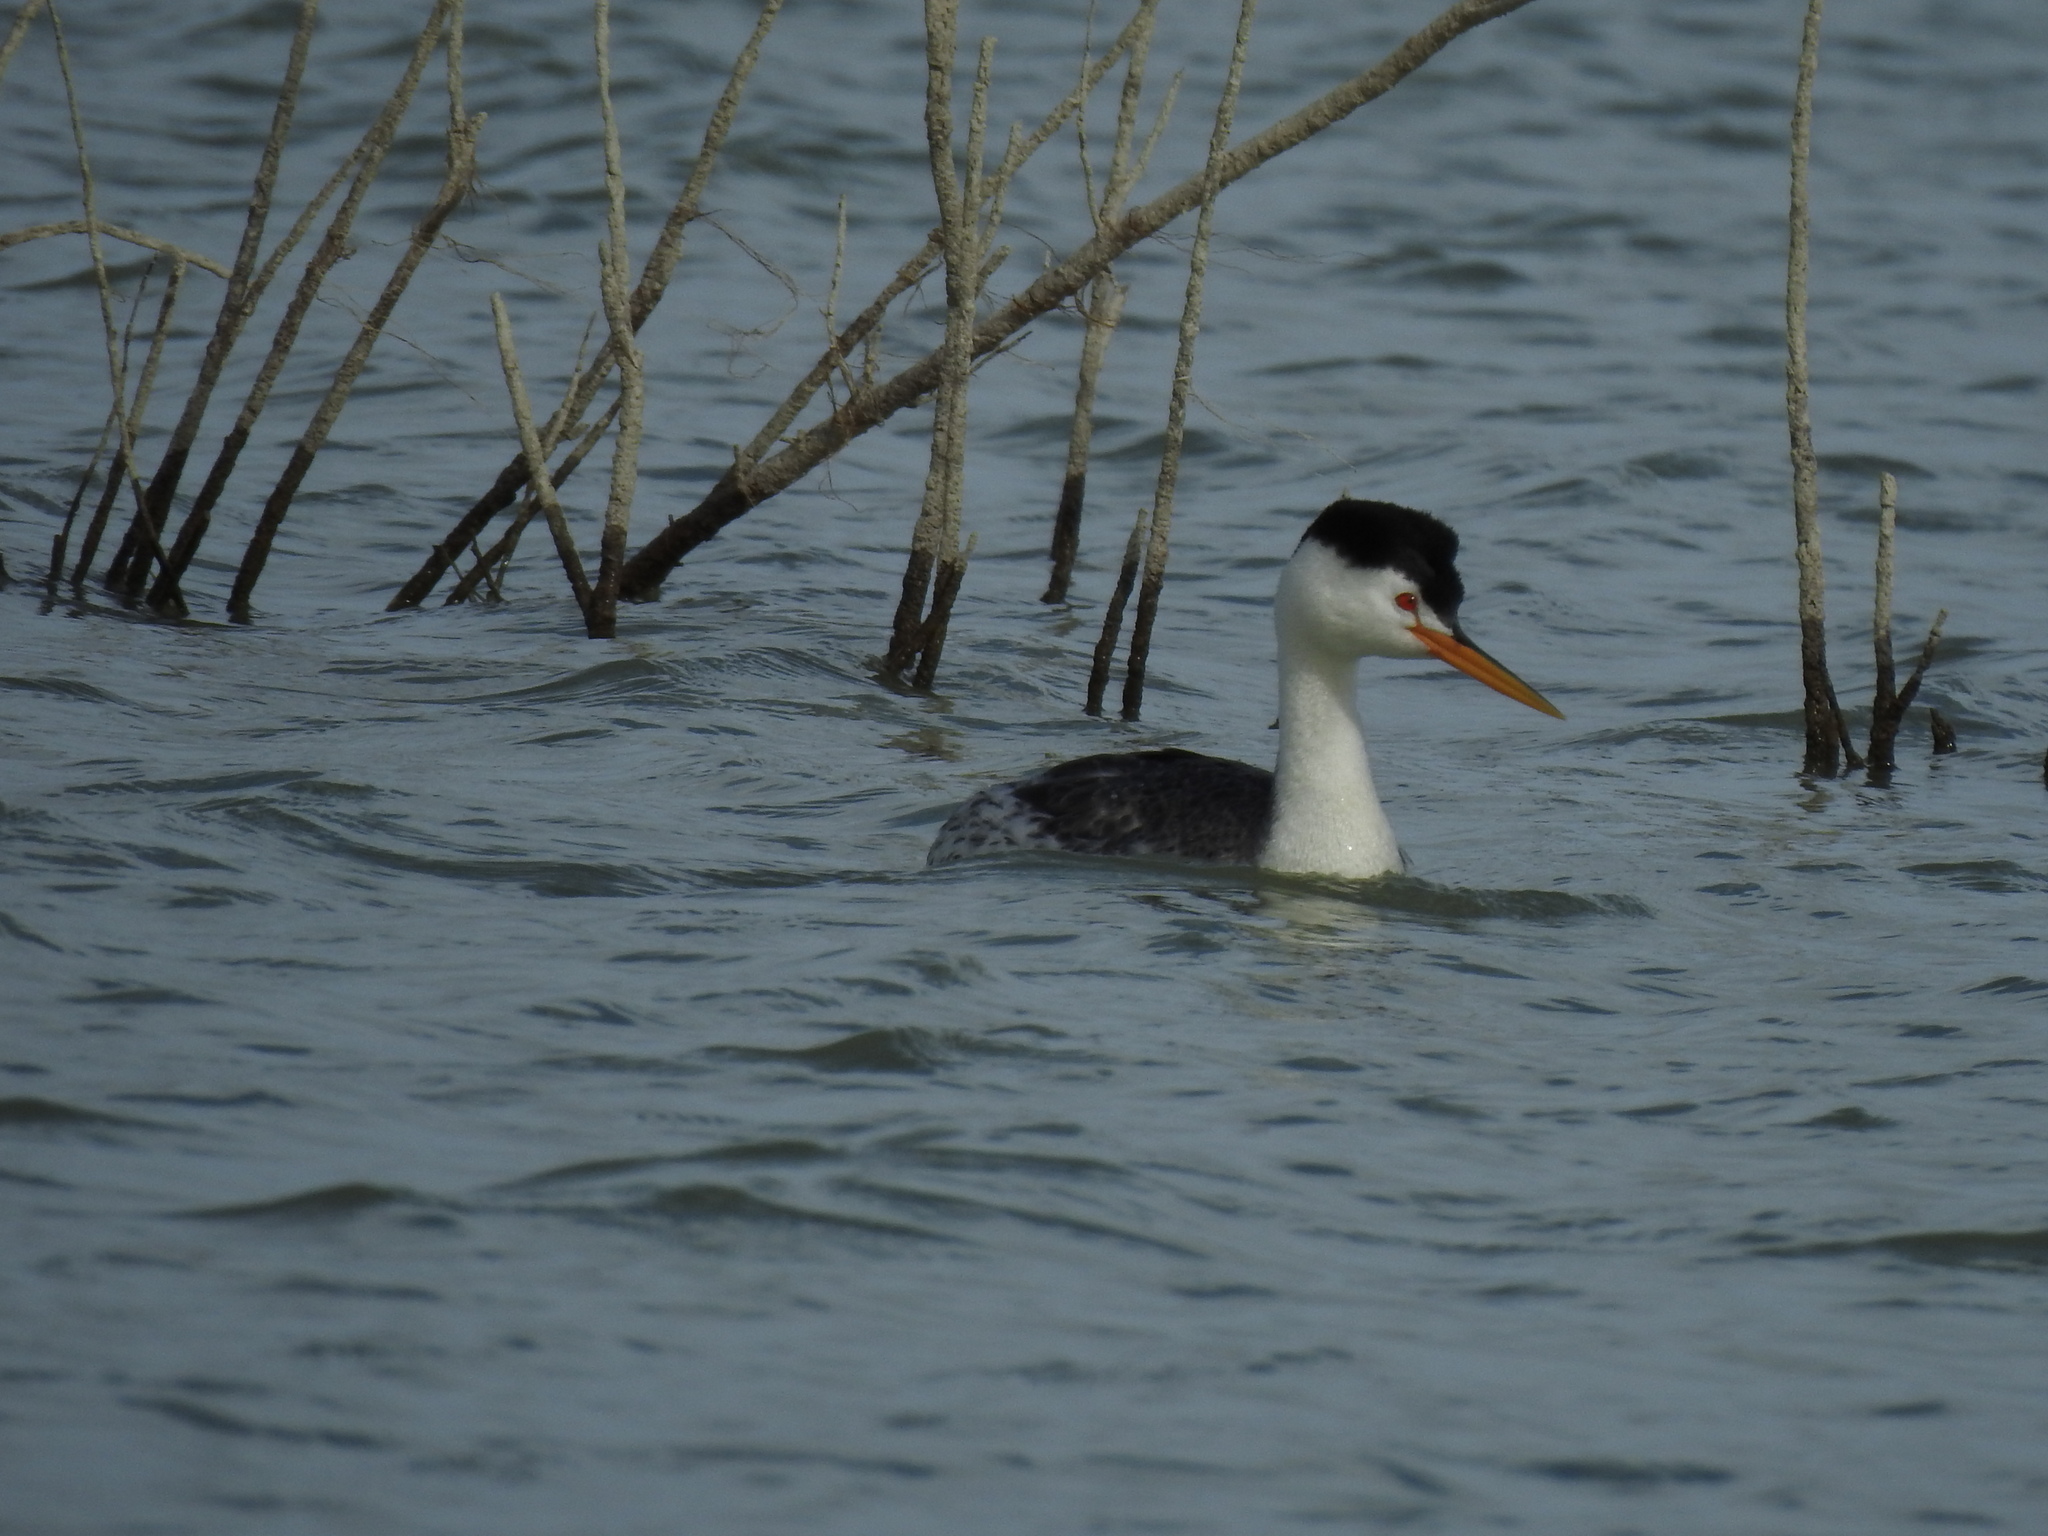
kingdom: Animalia
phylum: Chordata
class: Aves
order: Podicipediformes
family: Podicipedidae
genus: Aechmophorus
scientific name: Aechmophorus clarkii
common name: Clark's grebe
